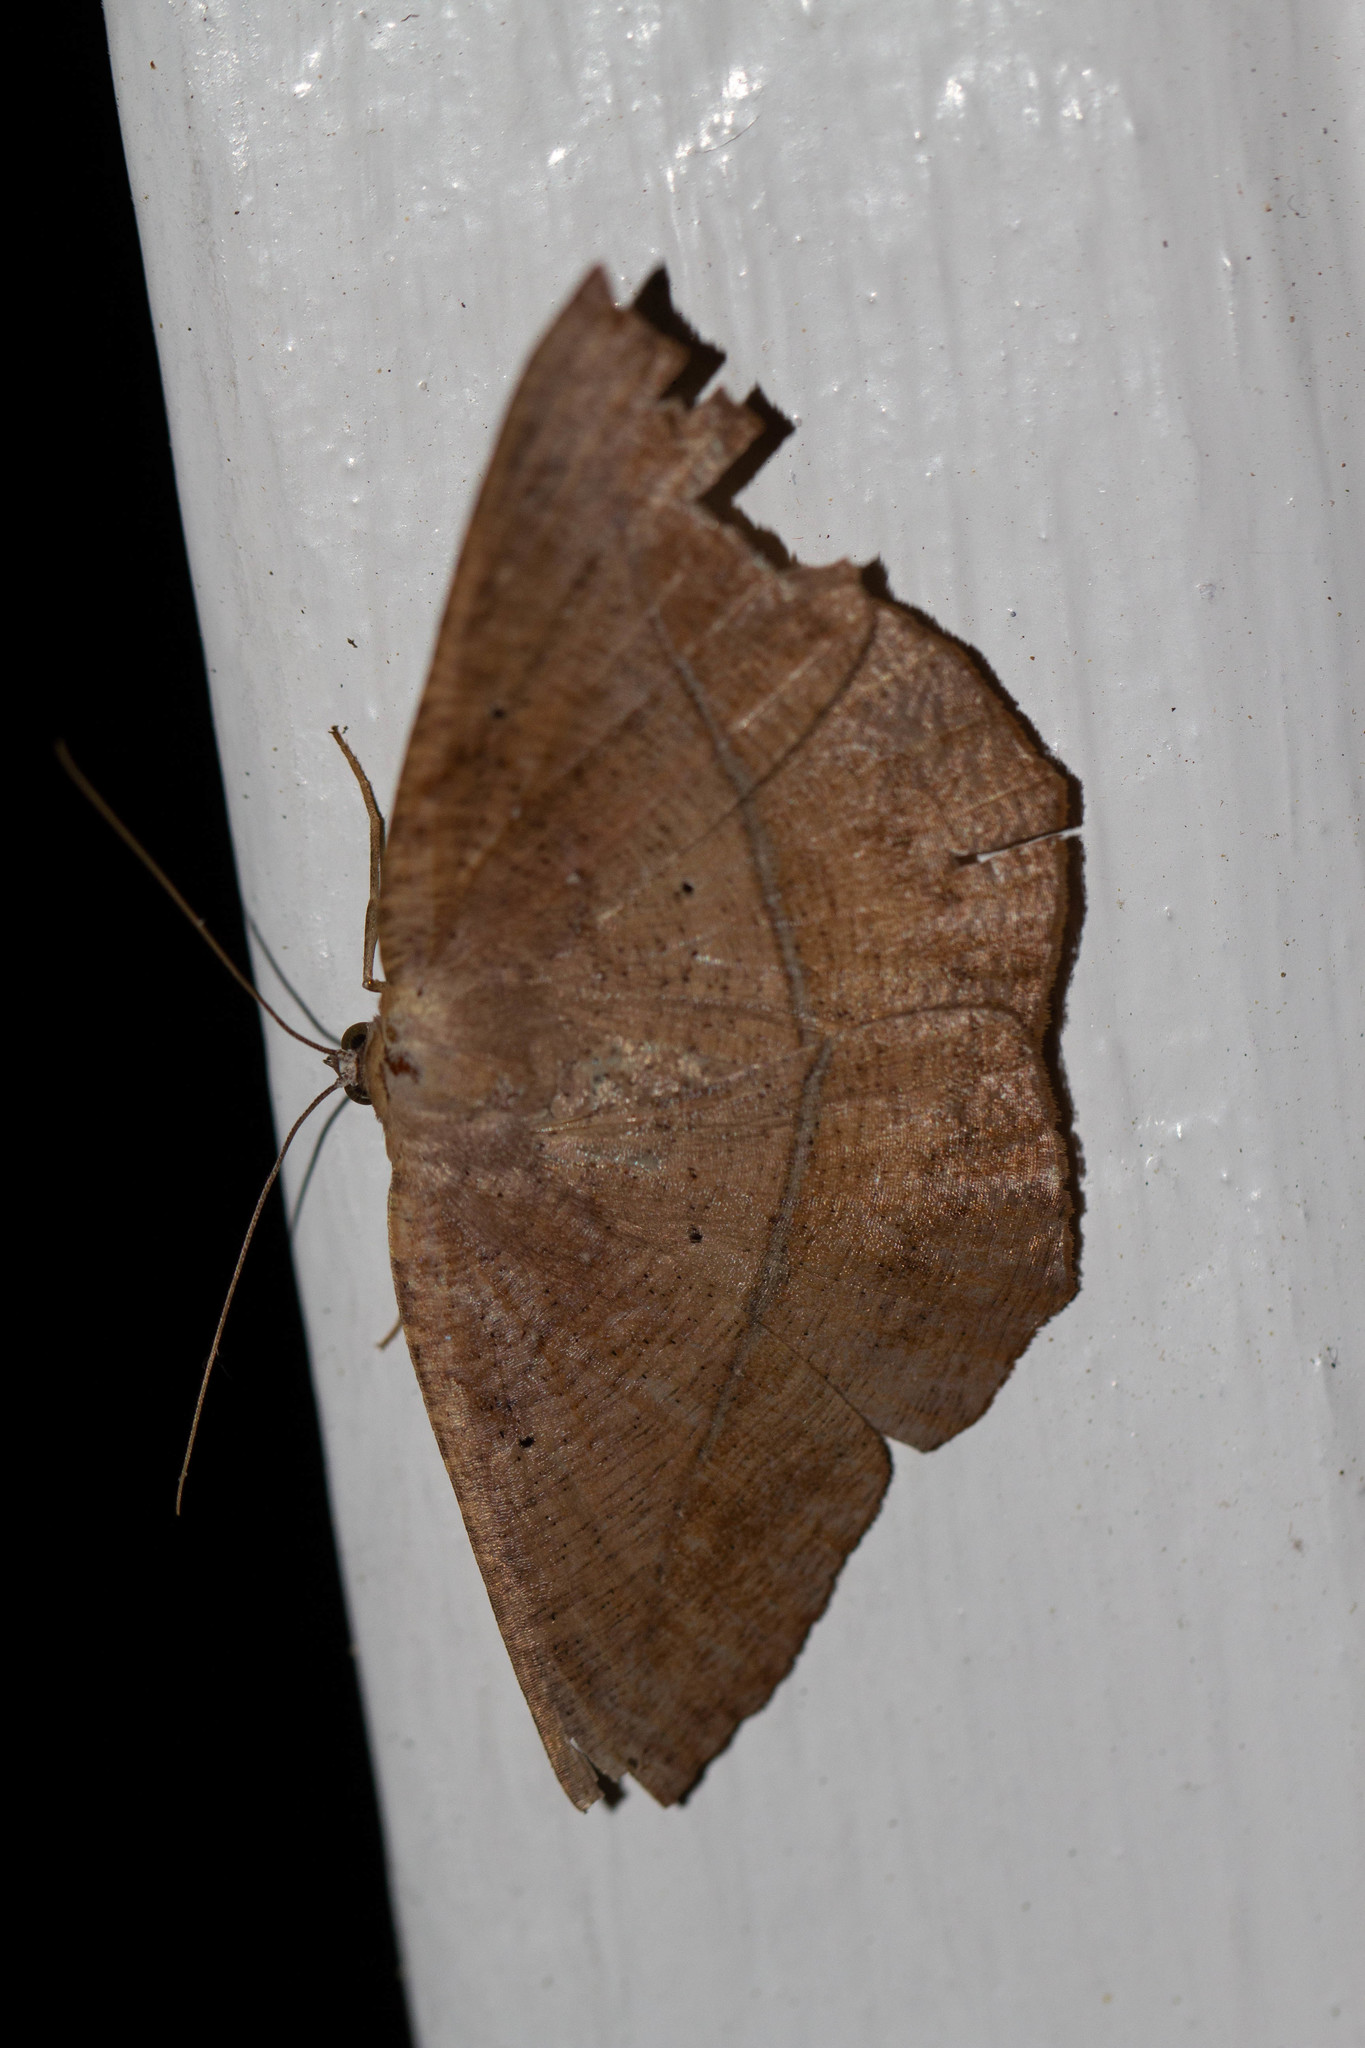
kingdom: Animalia
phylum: Arthropoda
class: Insecta
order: Lepidoptera
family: Geometridae
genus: Prochoerodes
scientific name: Prochoerodes lineola
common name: Large maple spanworm
